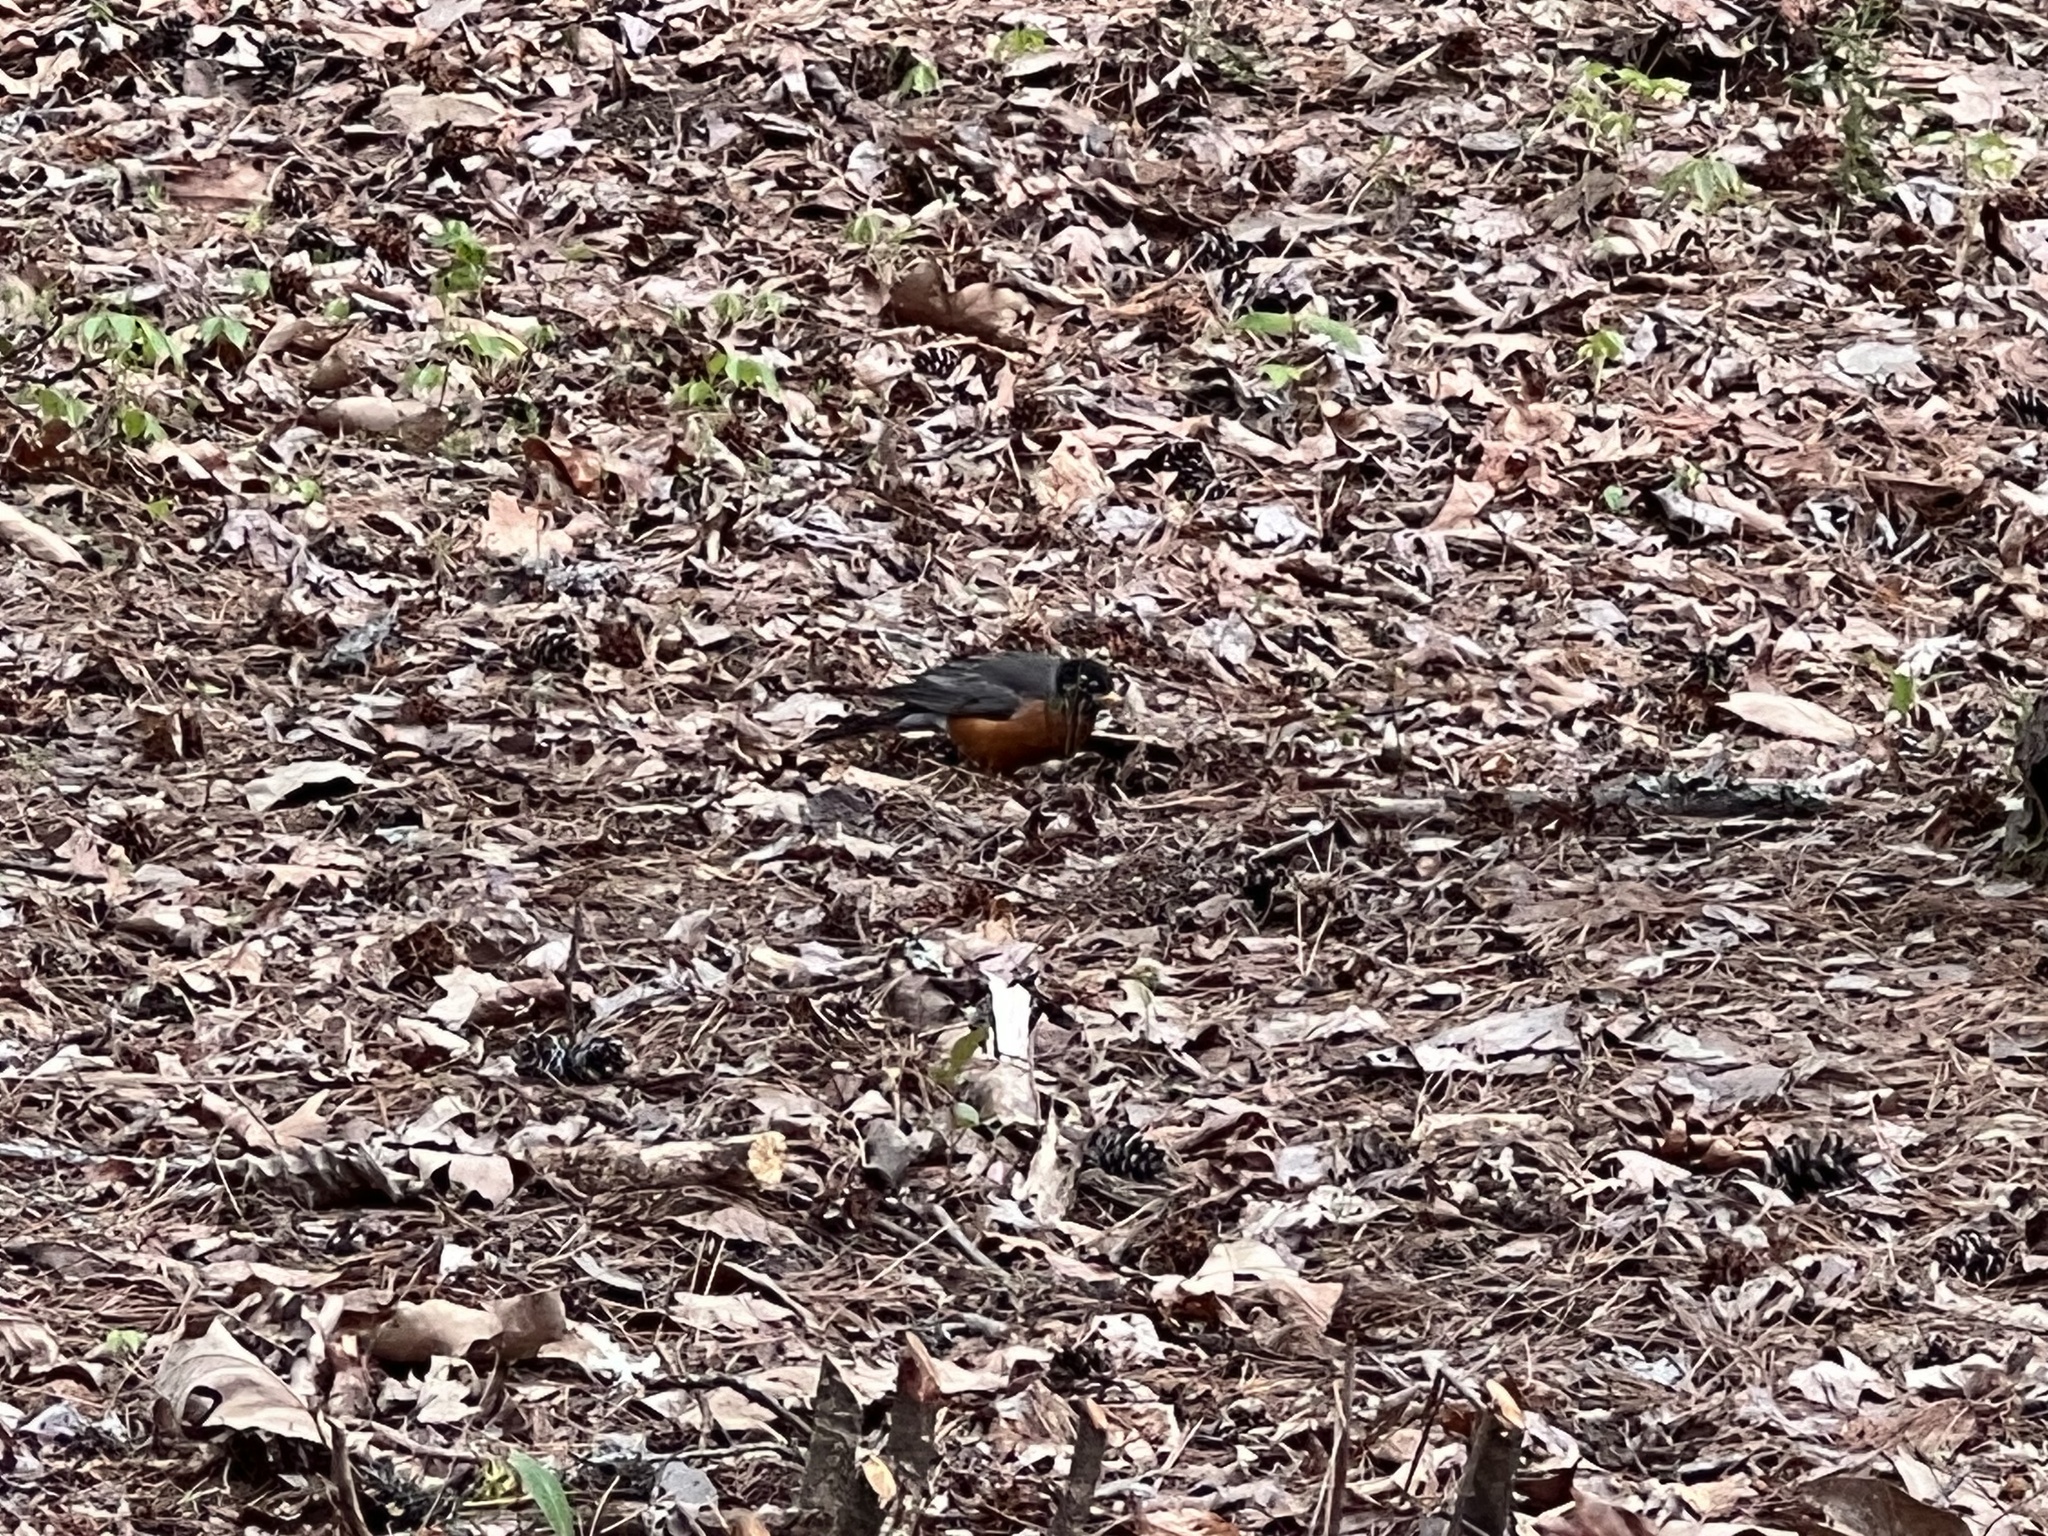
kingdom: Animalia
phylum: Chordata
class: Aves
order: Passeriformes
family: Turdidae
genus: Turdus
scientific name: Turdus migratorius
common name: American robin
